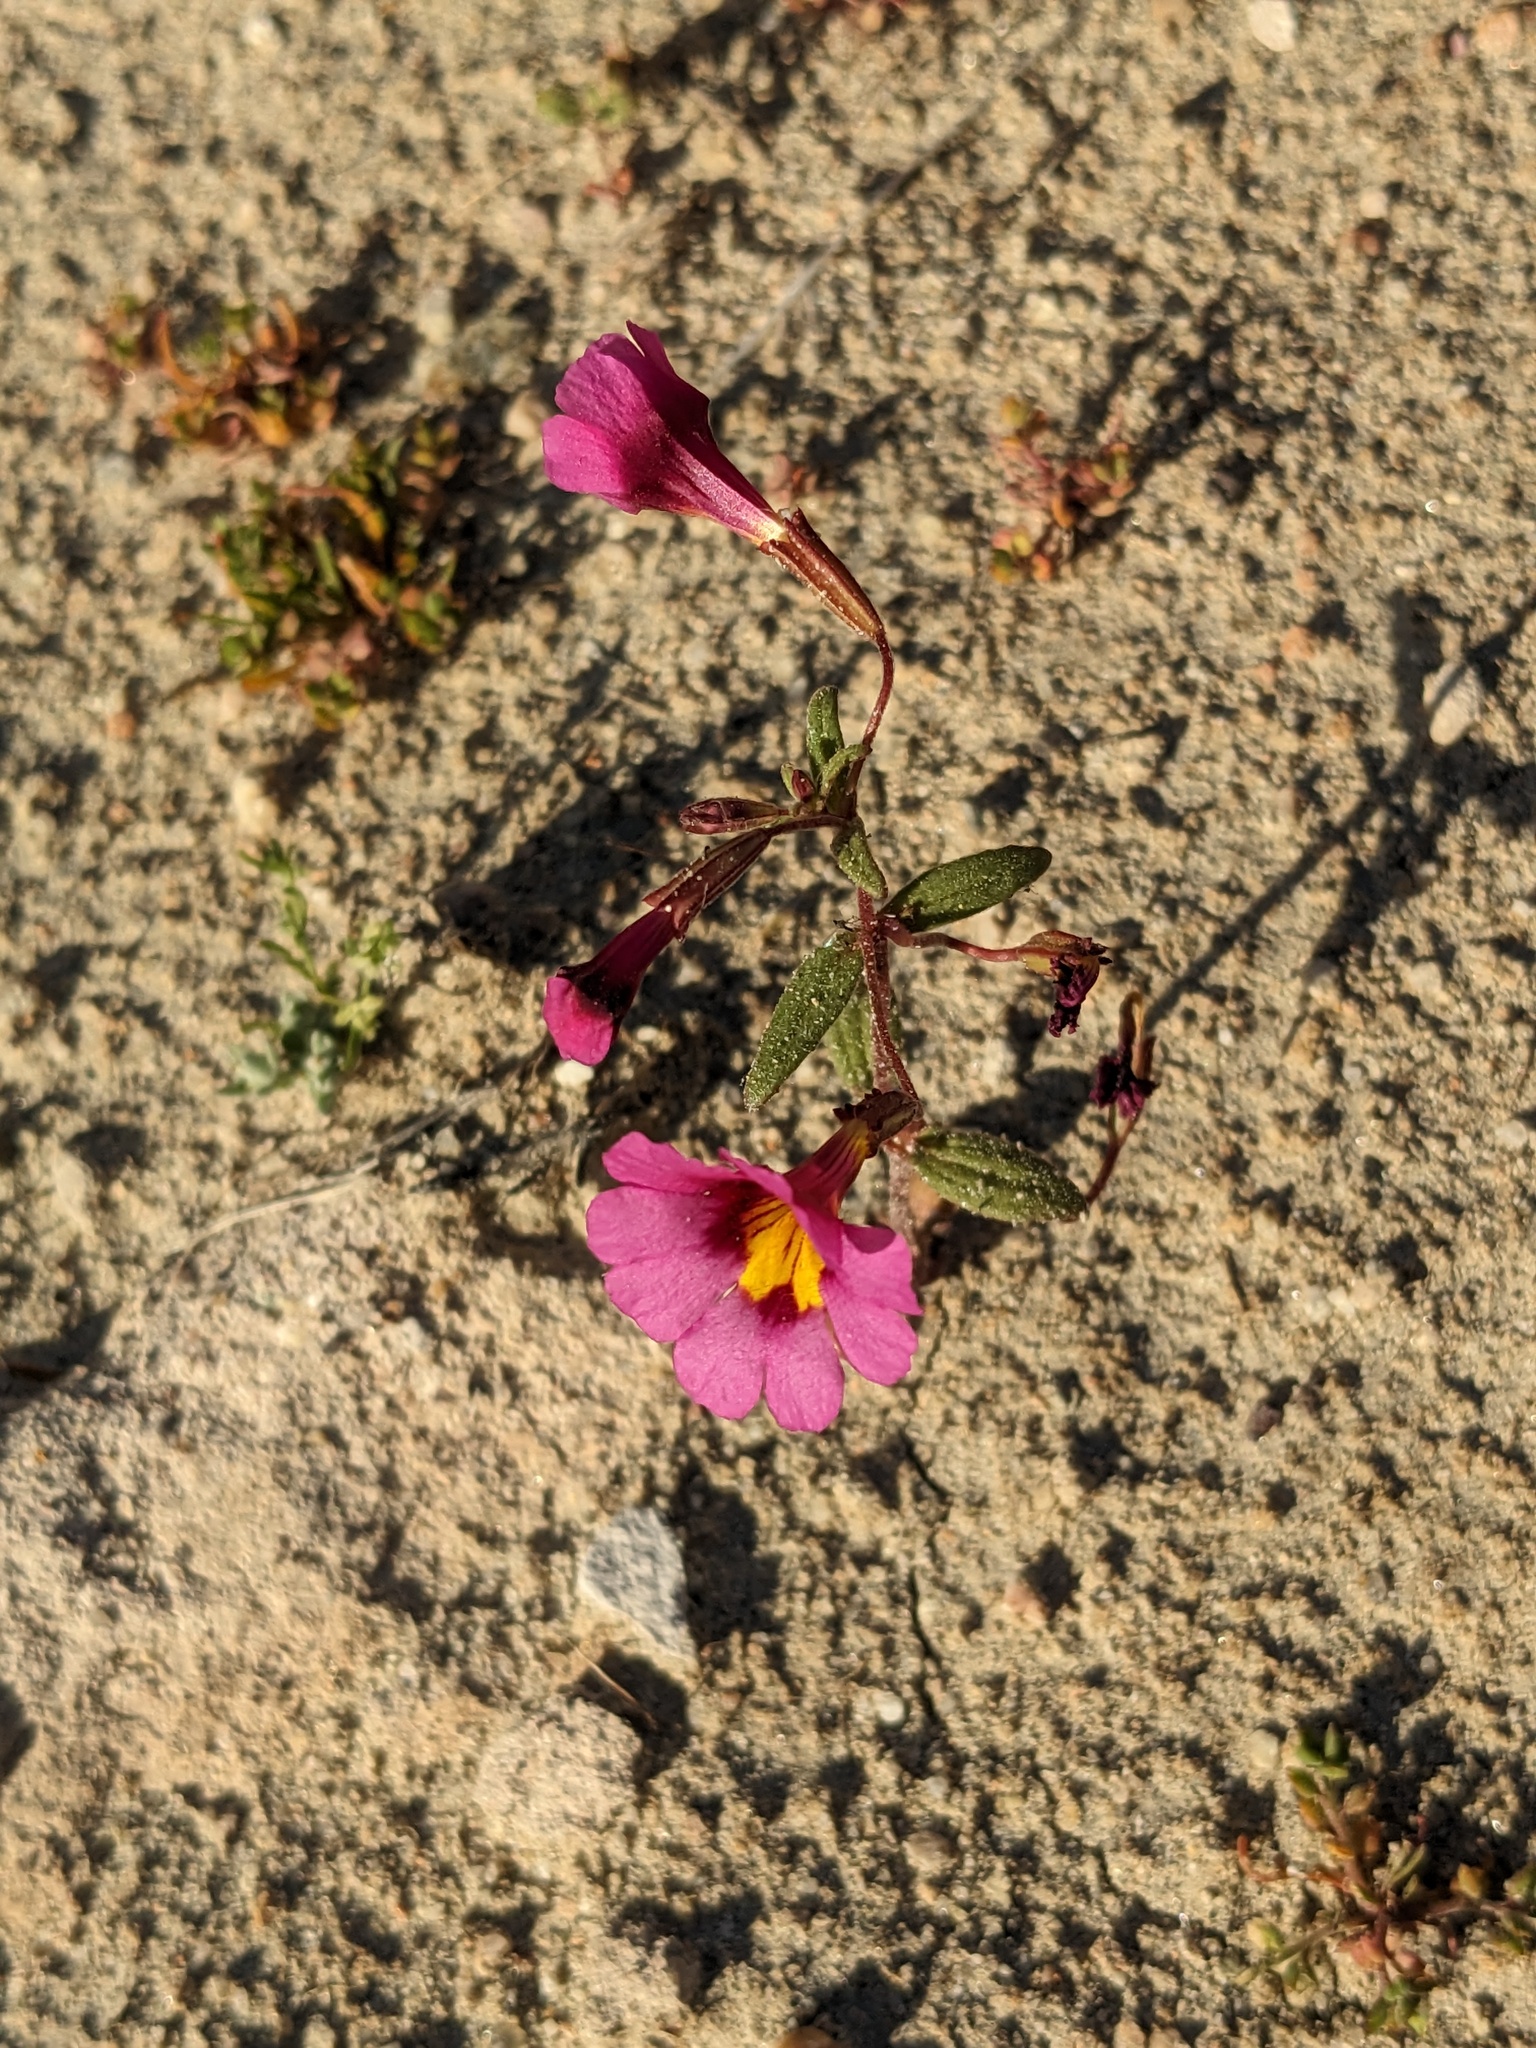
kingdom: Plantae
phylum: Tracheophyta
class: Magnoliopsida
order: Lamiales
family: Phrymaceae
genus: Erythranthe
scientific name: Erythranthe rhodopetra
